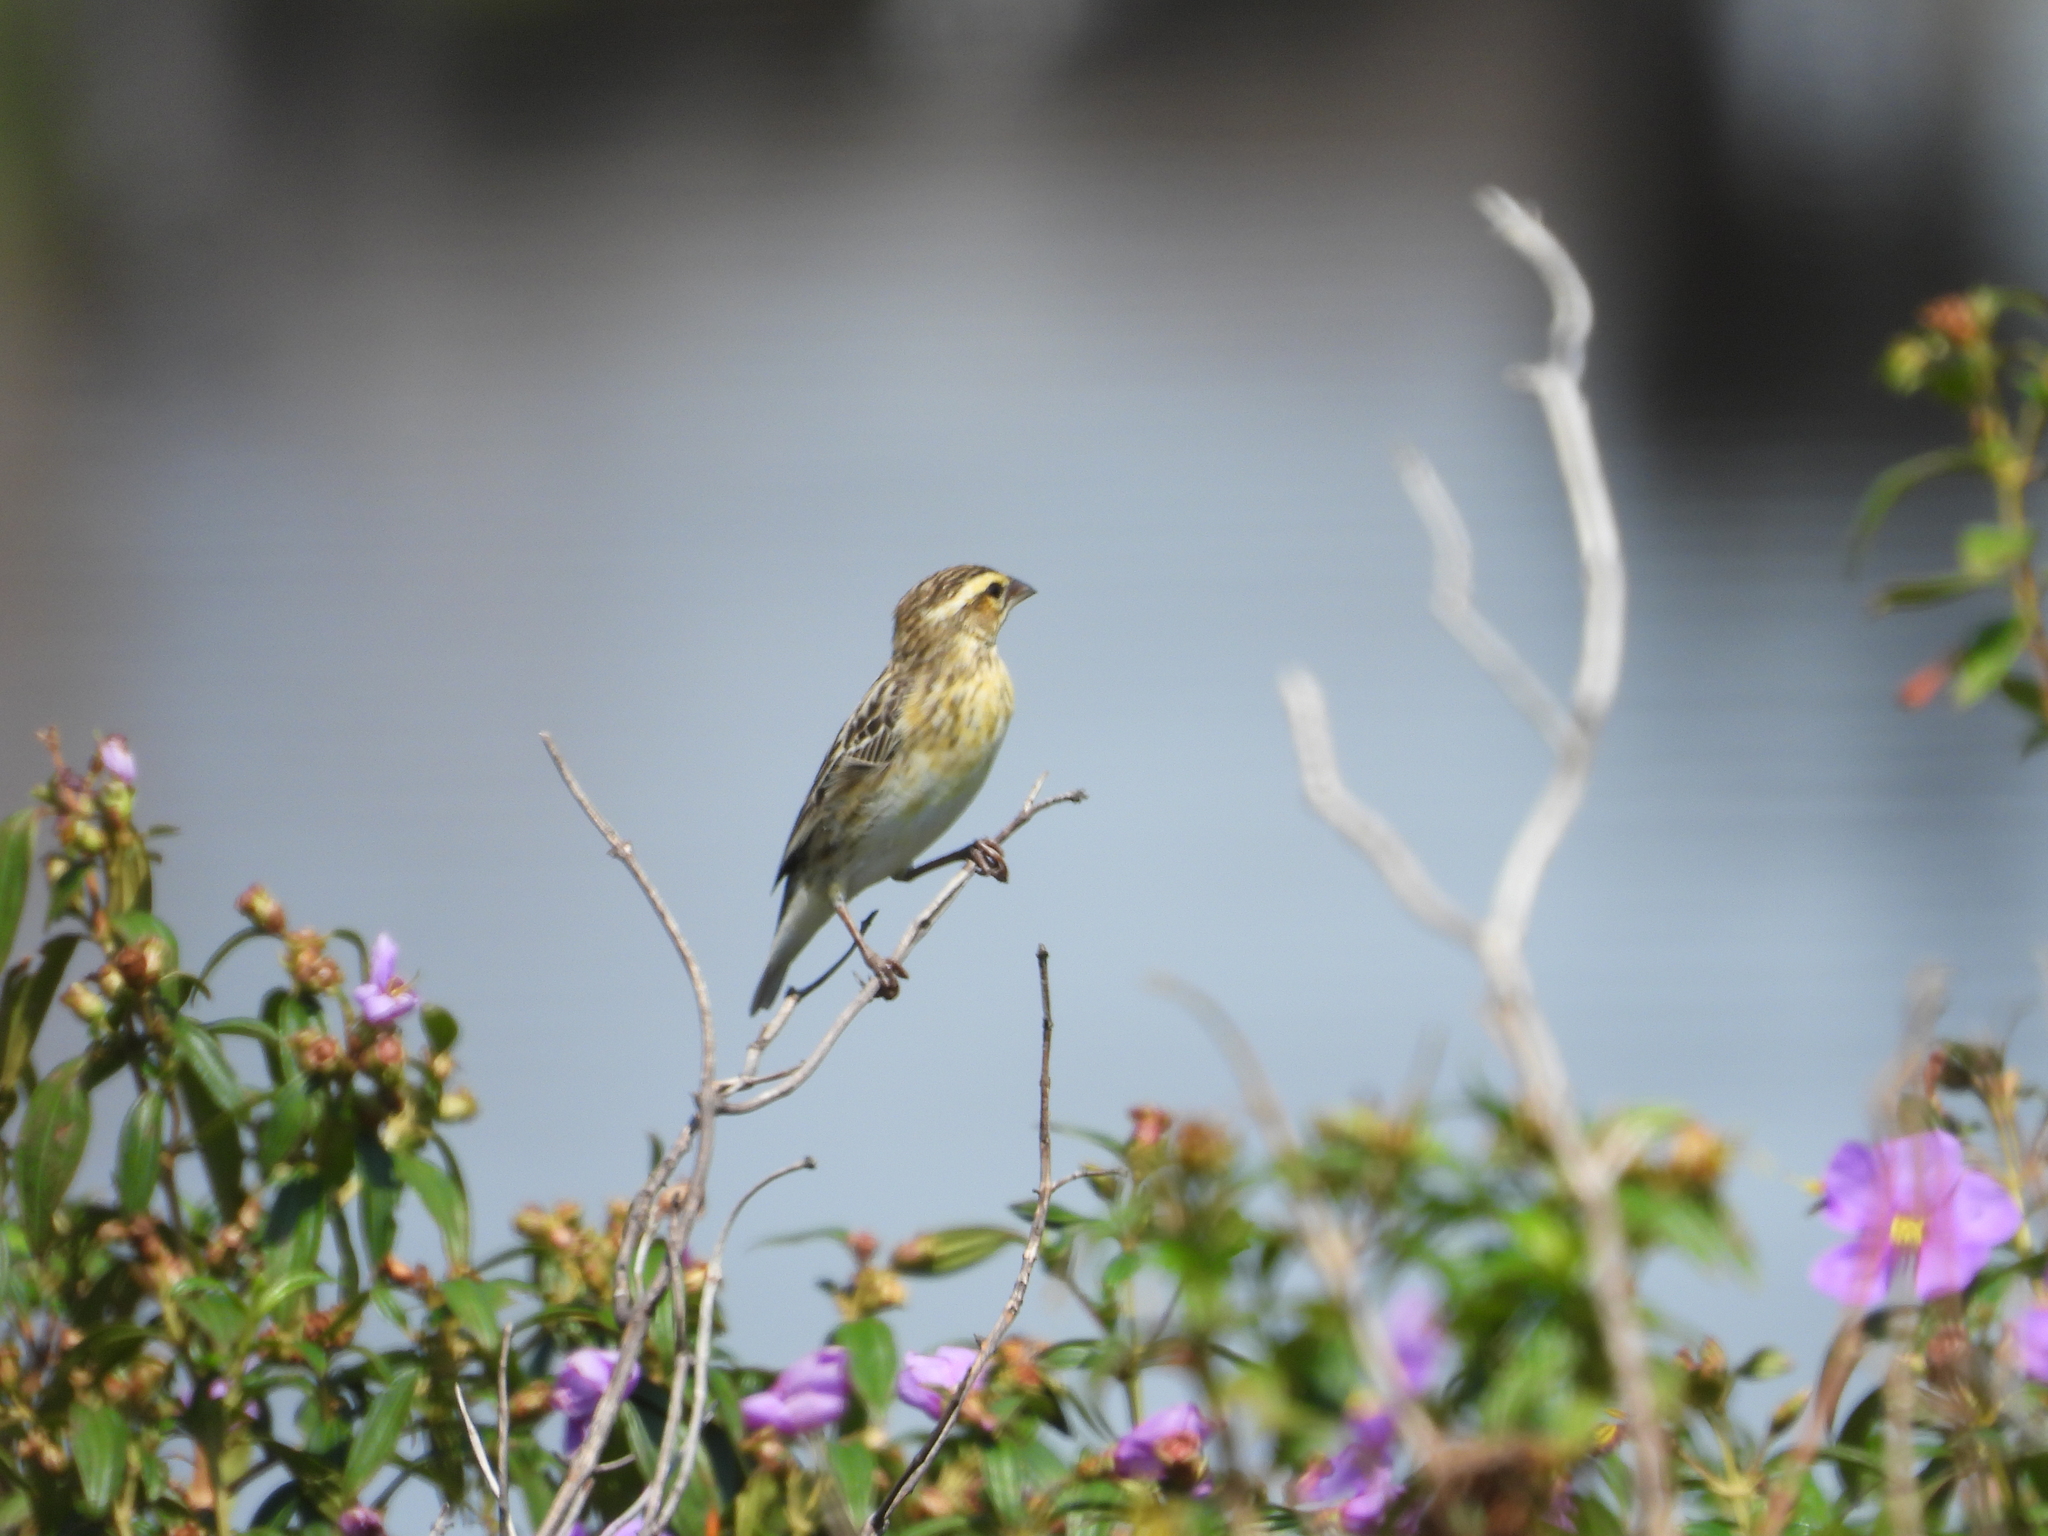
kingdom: Animalia
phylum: Chordata
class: Aves
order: Passeriformes
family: Ploceidae
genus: Euplectes
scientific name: Euplectes afer
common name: Yellow-crowned bishop
